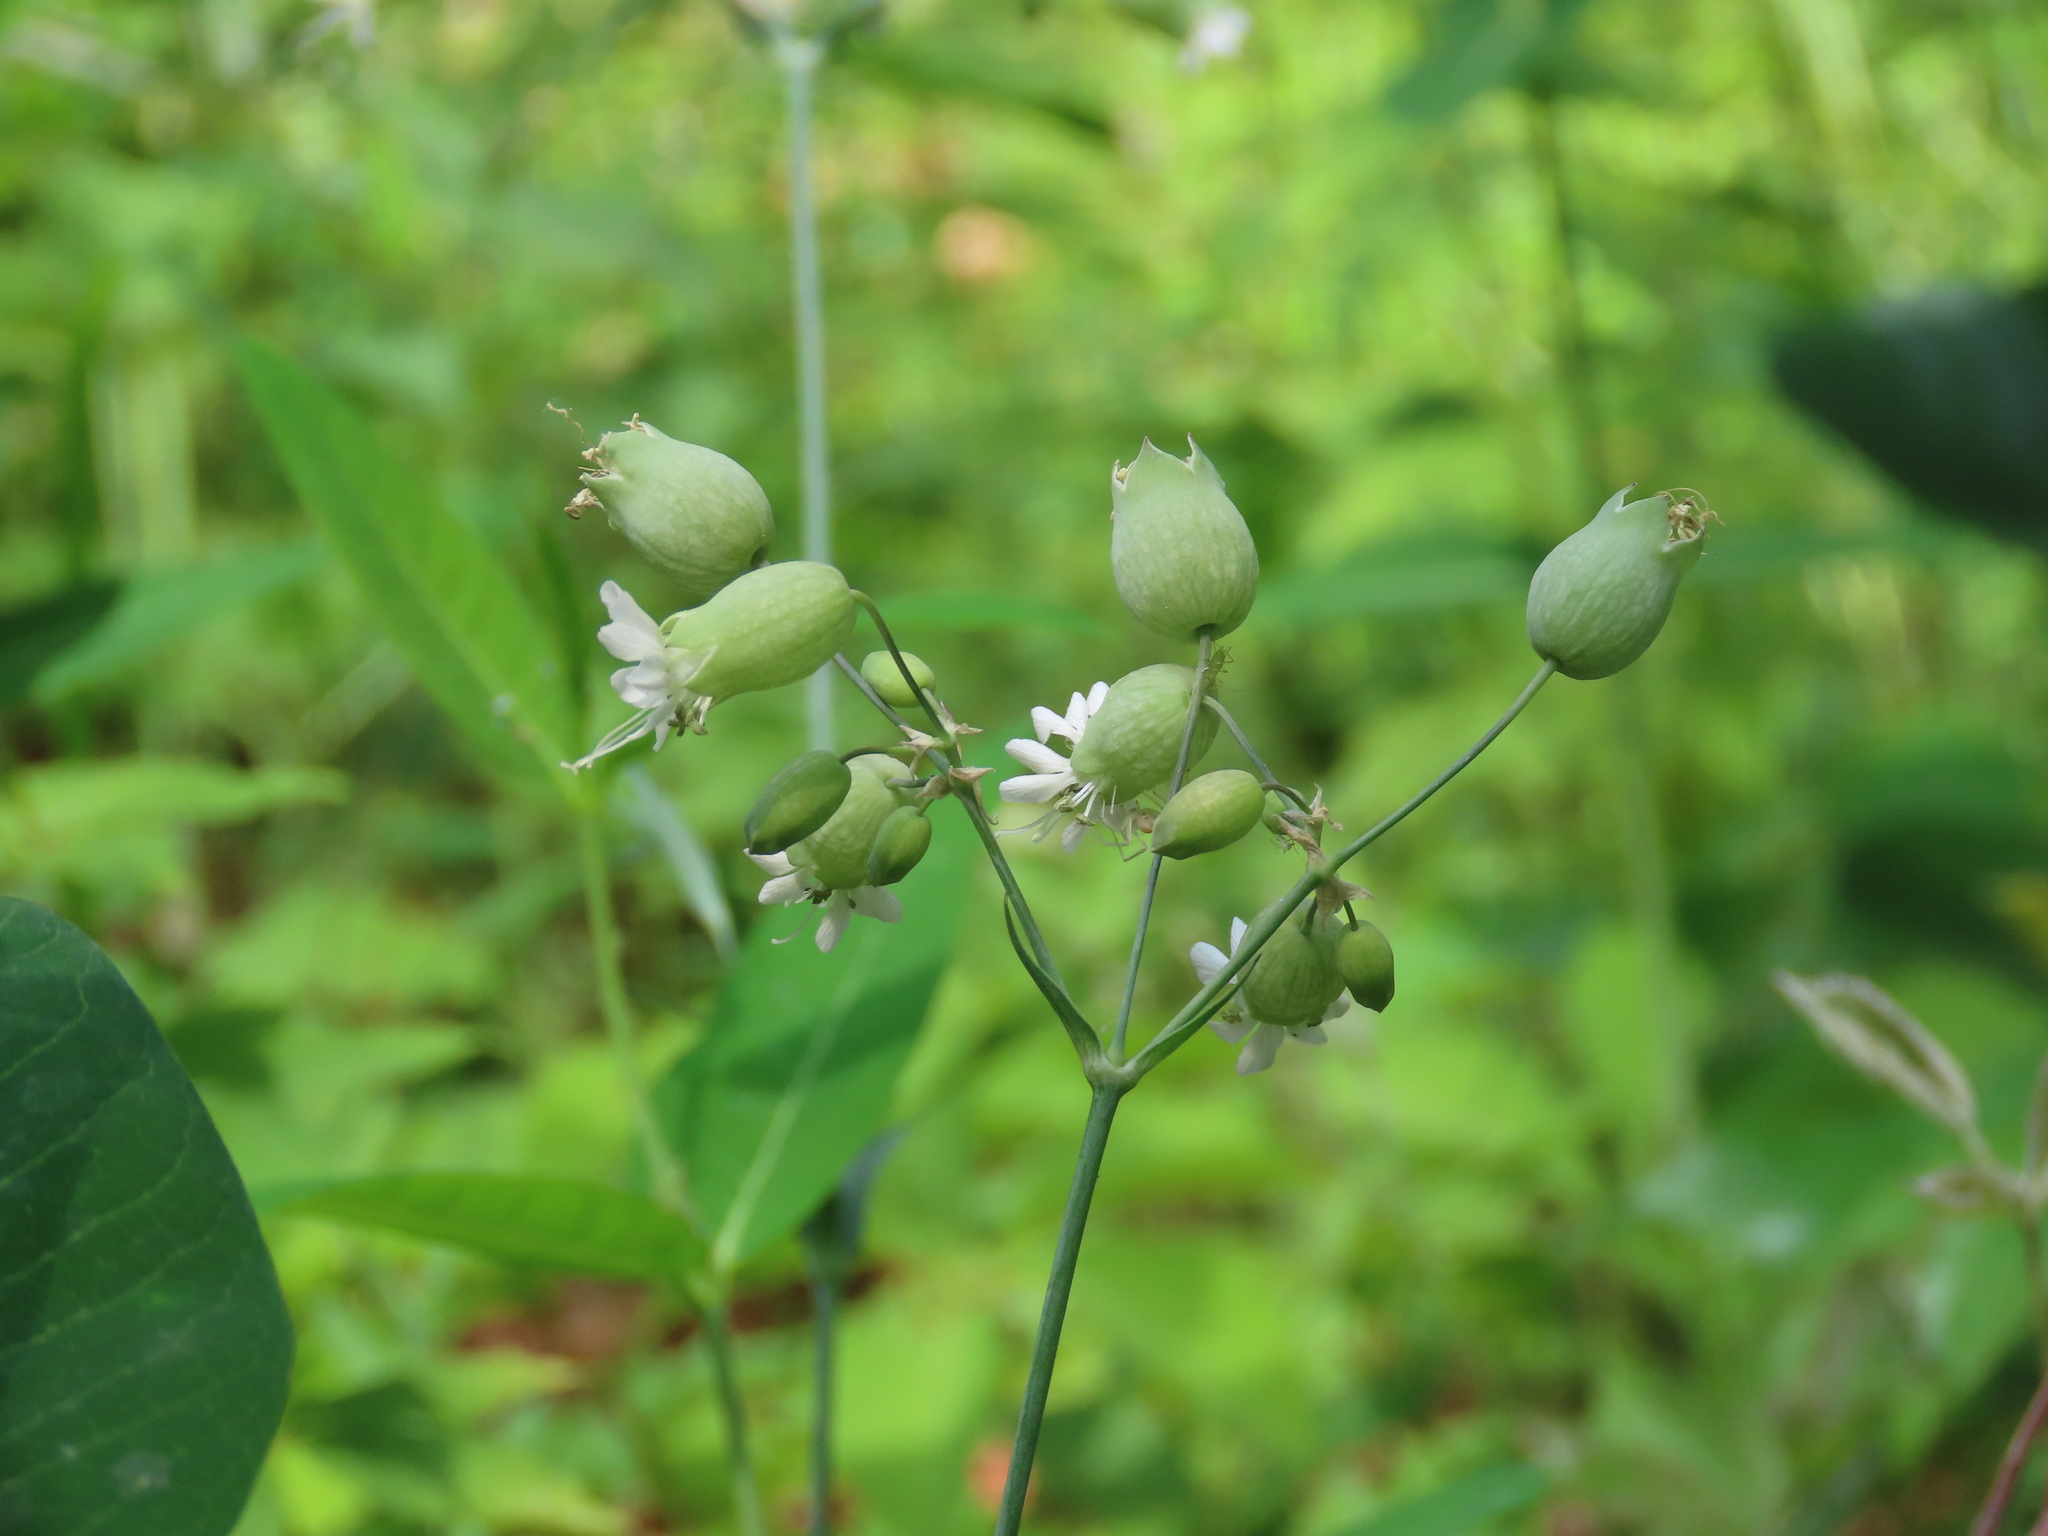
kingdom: Plantae
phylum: Tracheophyta
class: Magnoliopsida
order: Caryophyllales
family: Caryophyllaceae
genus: Silene
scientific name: Silene vulgaris
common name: Bladder campion
